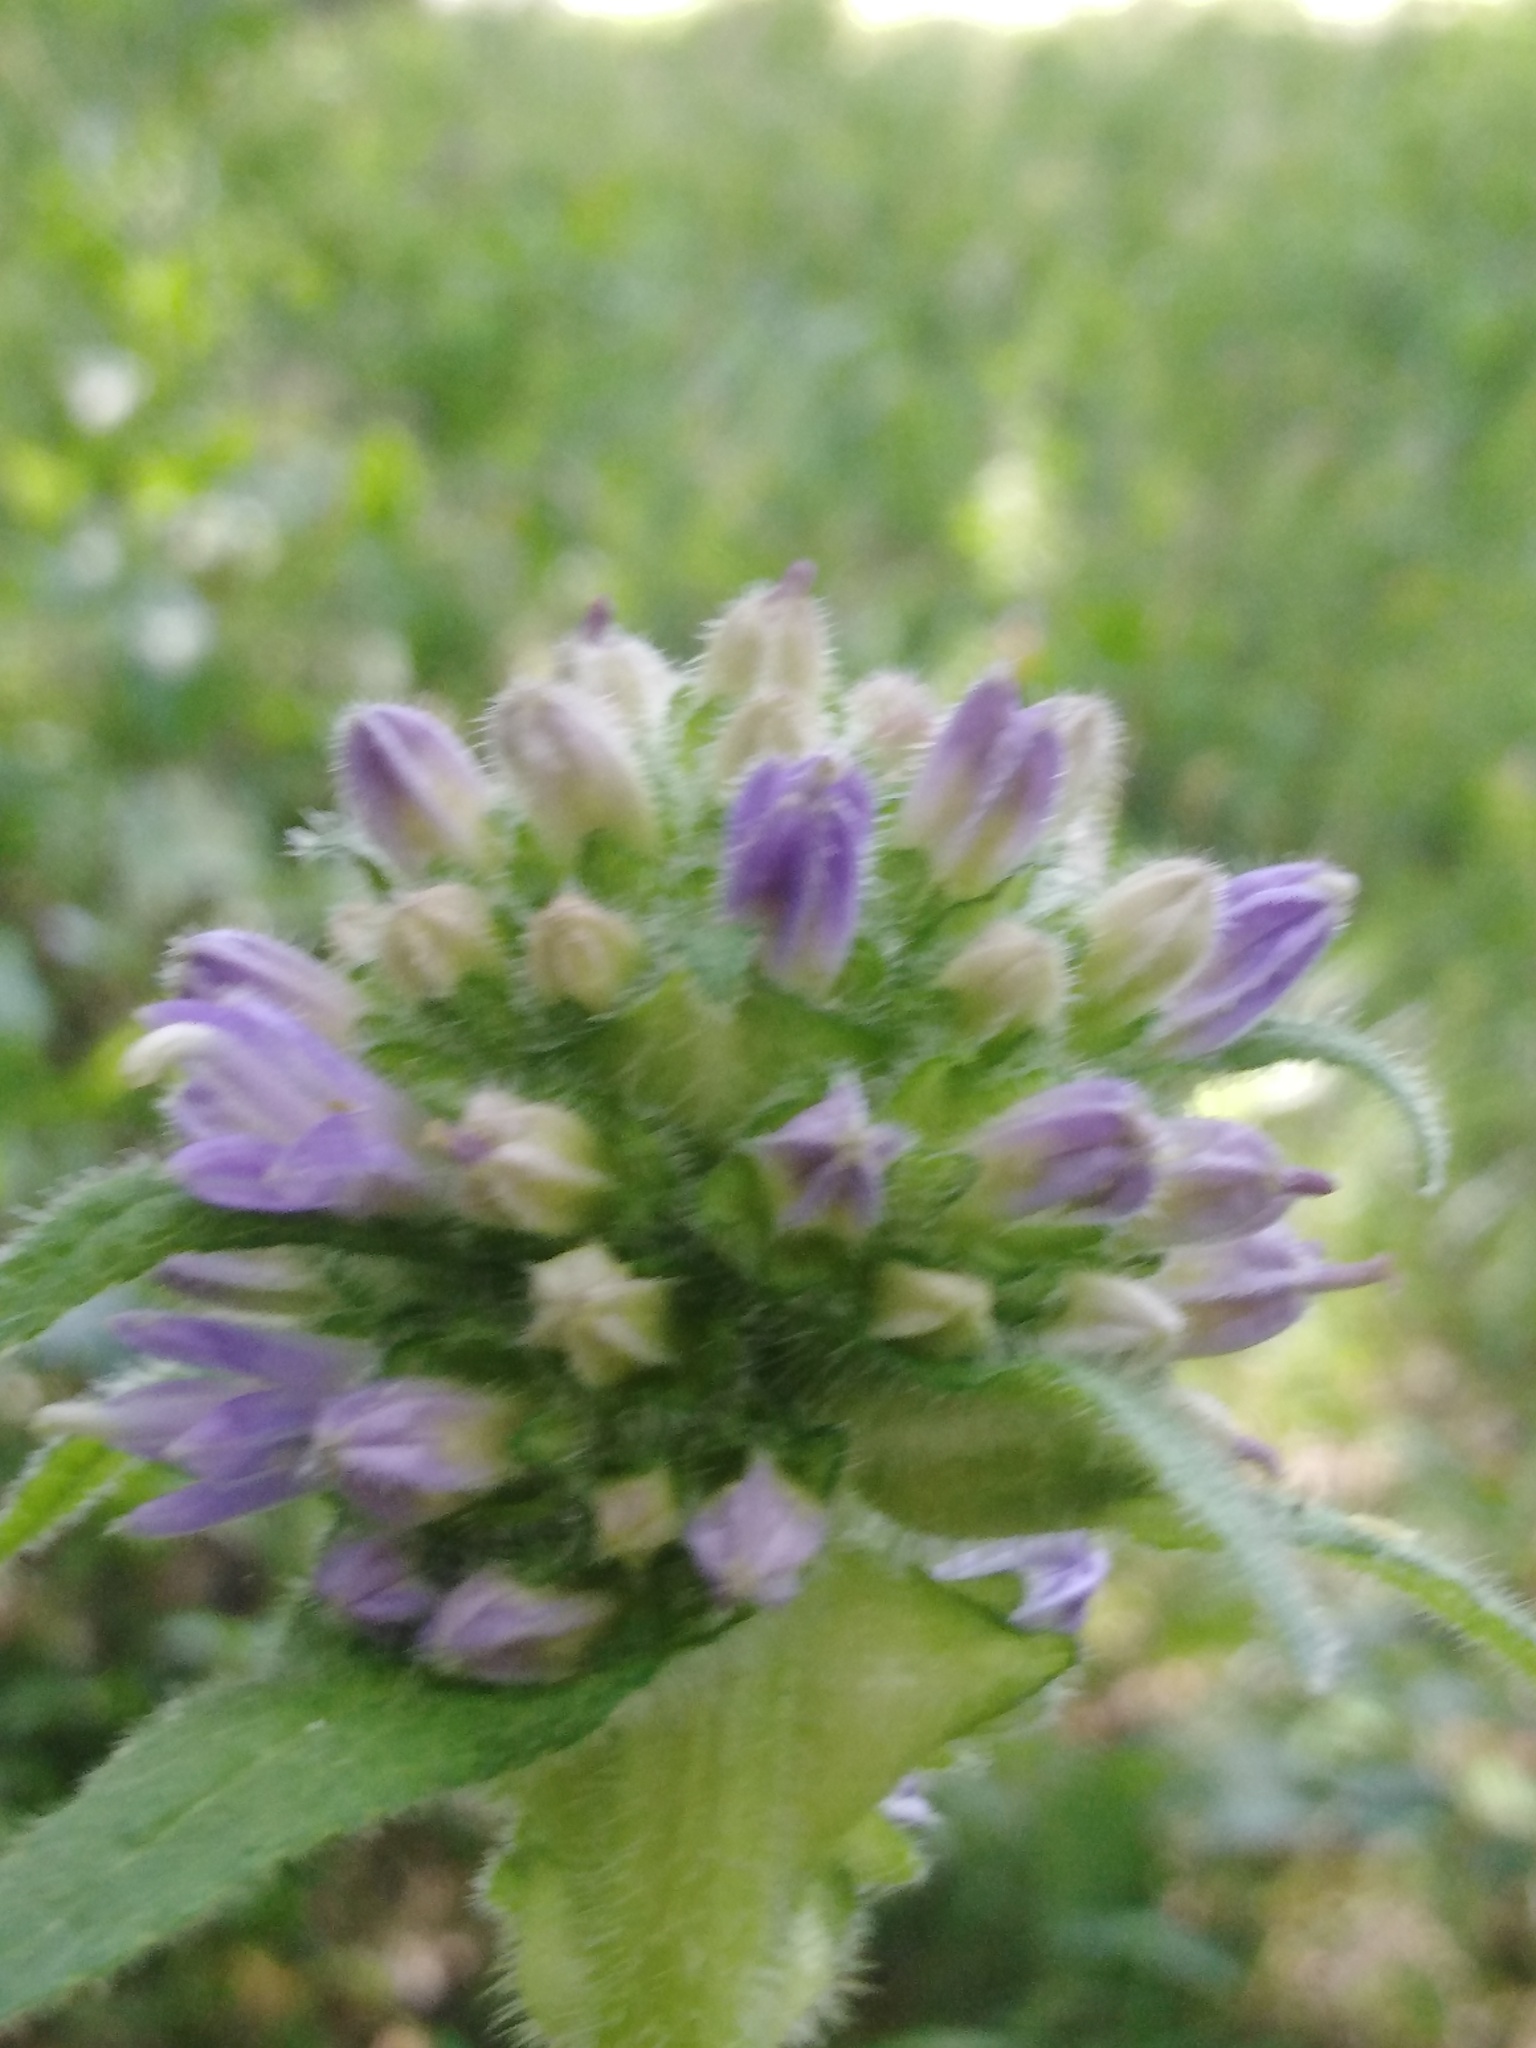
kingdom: Plantae
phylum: Tracheophyta
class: Magnoliopsida
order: Asterales
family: Campanulaceae
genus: Campanula
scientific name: Campanula cervicaria
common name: Bristly bellflower
